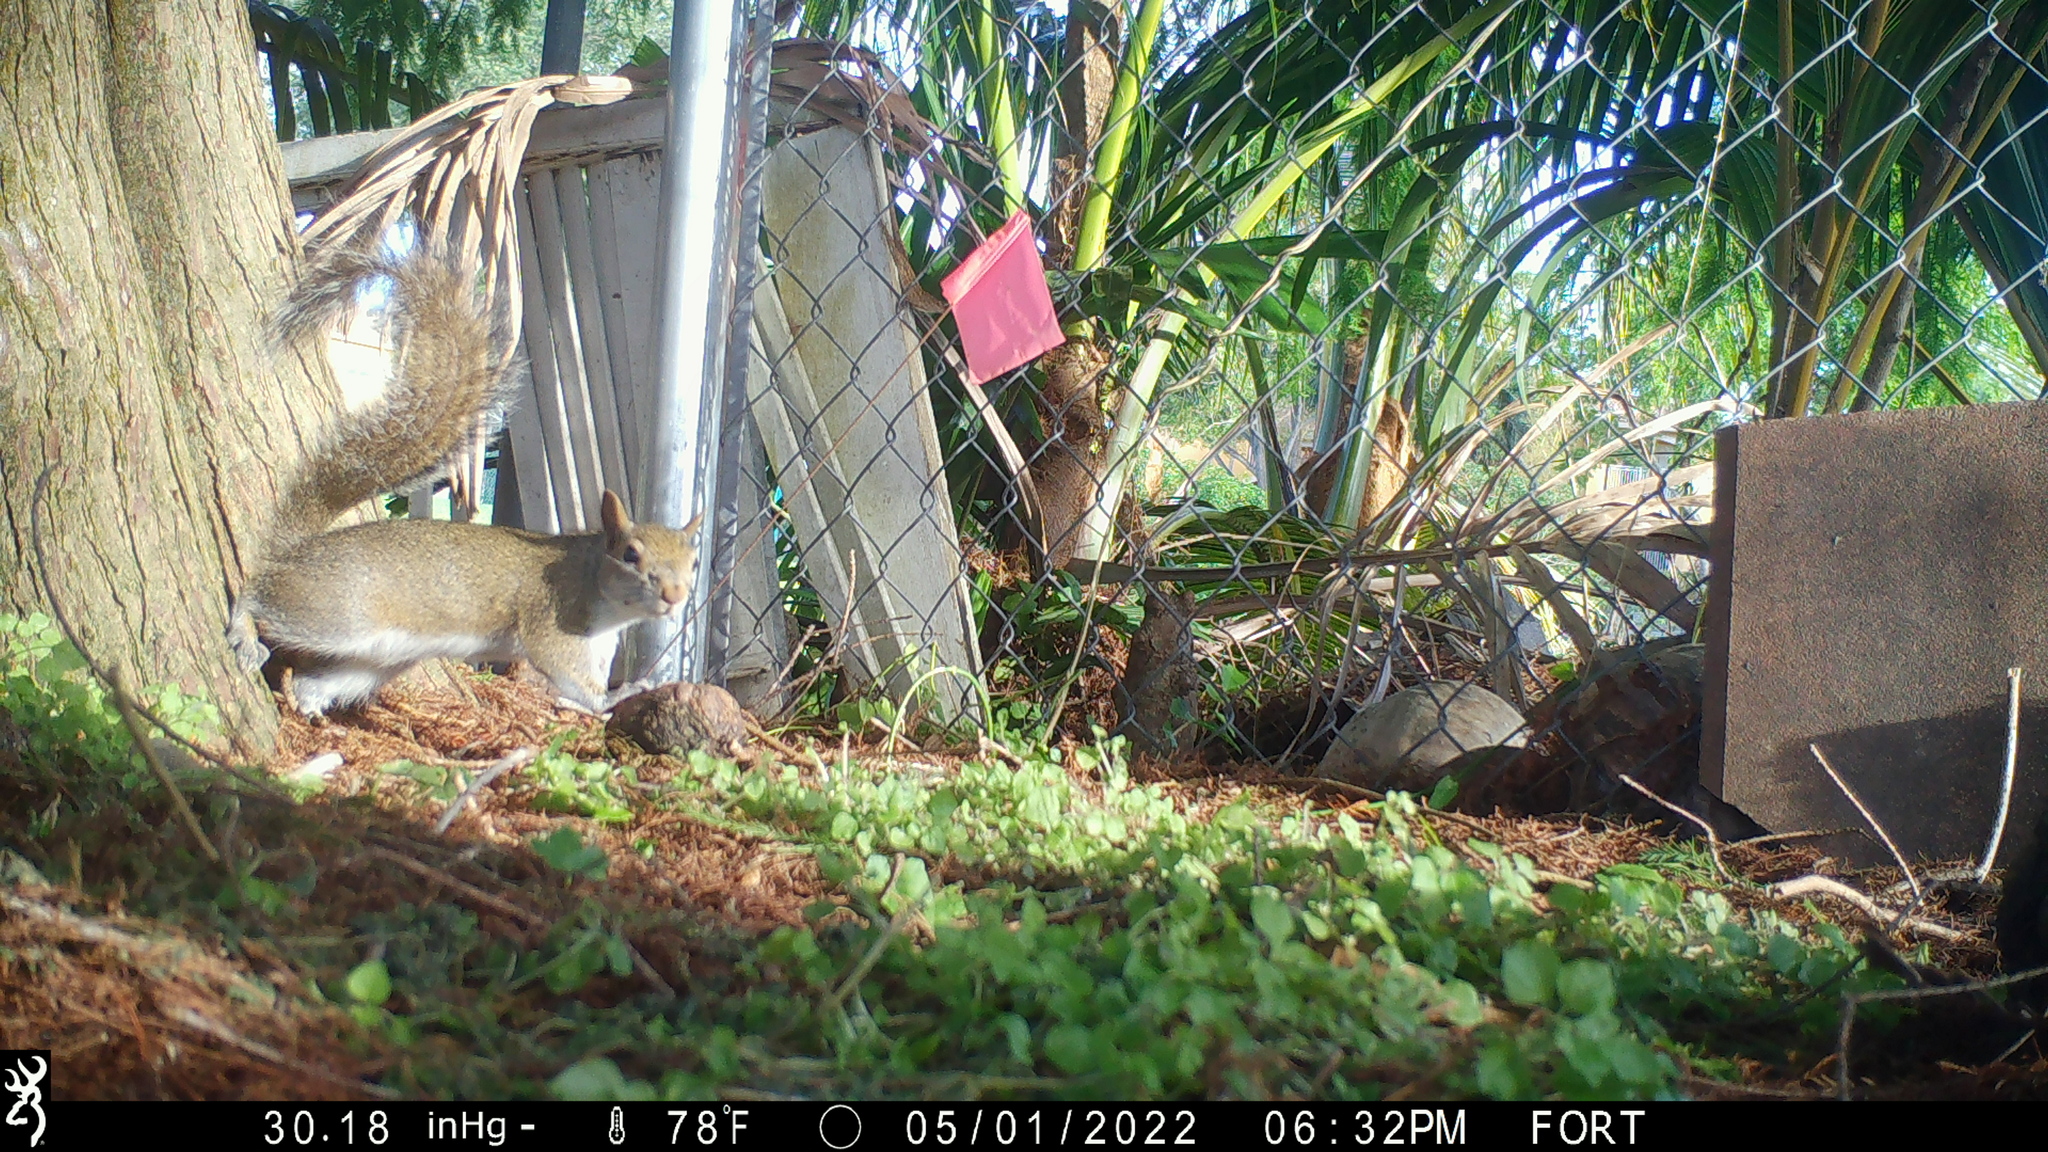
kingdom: Animalia
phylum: Chordata
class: Mammalia
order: Rodentia
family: Sciuridae
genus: Sciurus
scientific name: Sciurus carolinensis
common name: Eastern gray squirrel
